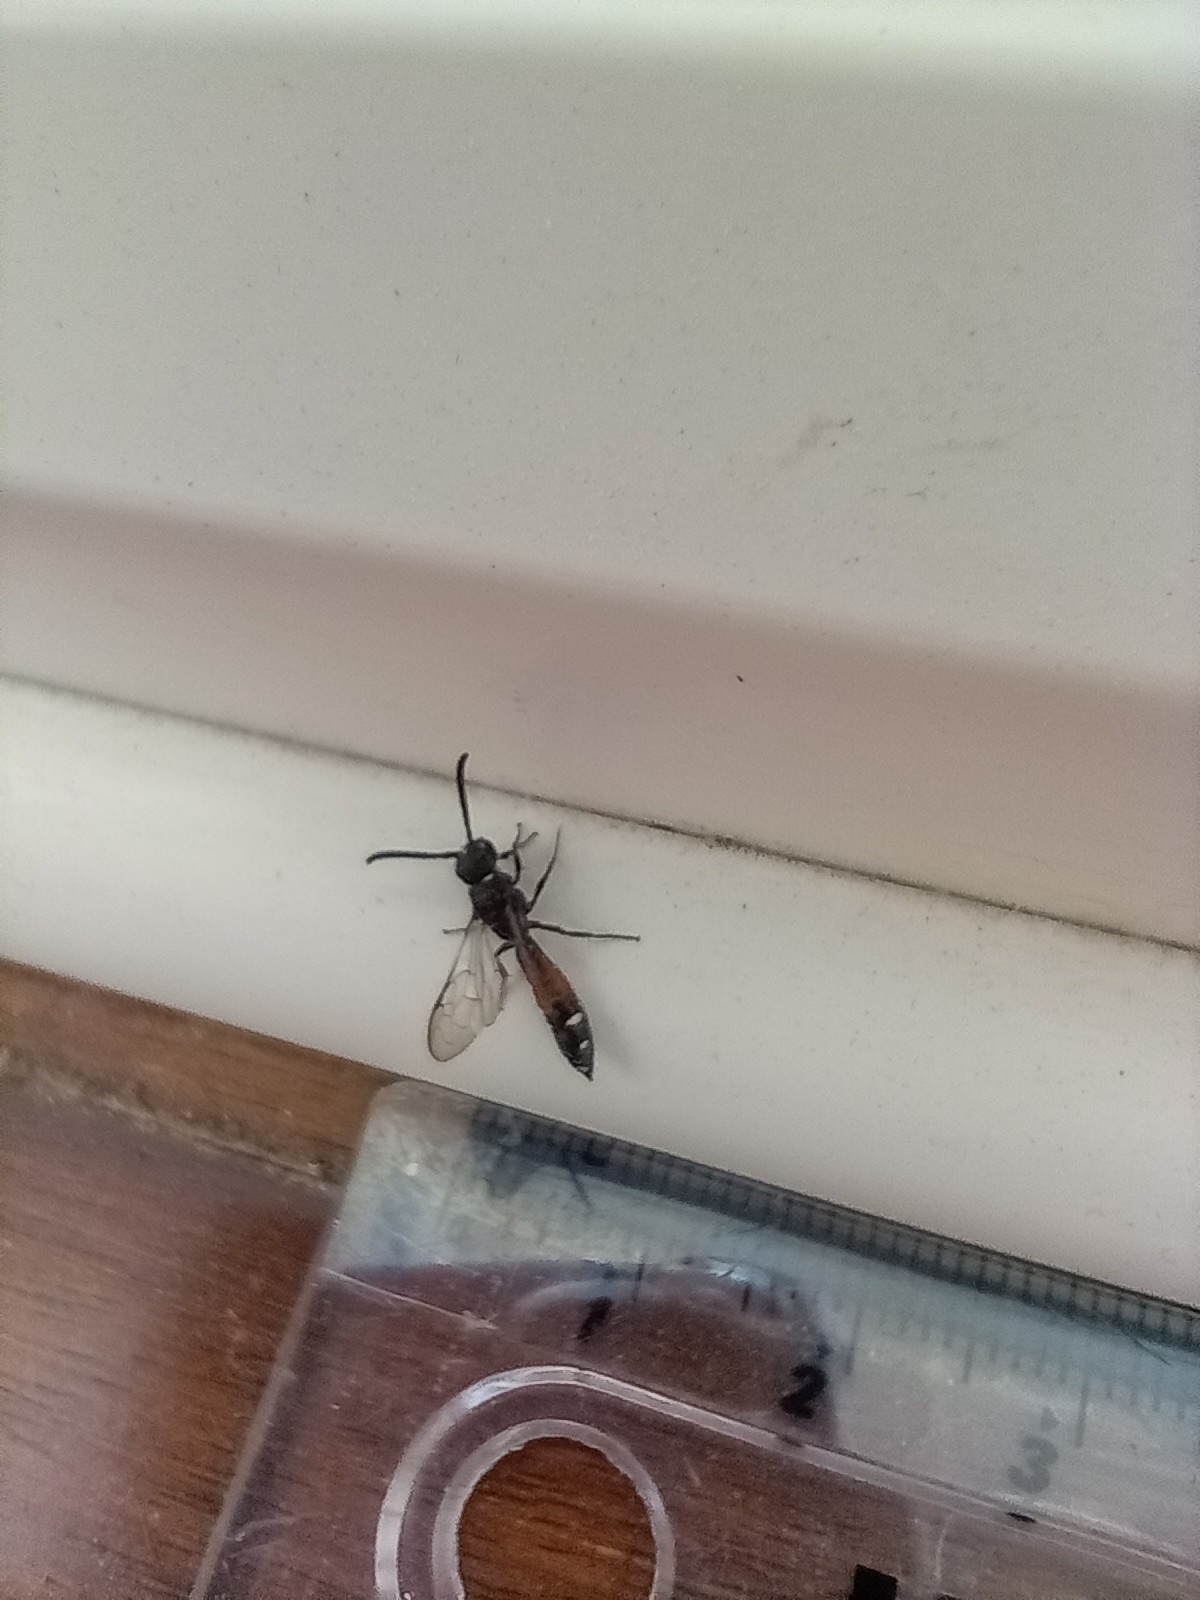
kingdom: Animalia
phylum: Arthropoda
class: Insecta
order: Hymenoptera
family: Sapygidae
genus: Sapyga
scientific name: Sapyga quinquepunctata
